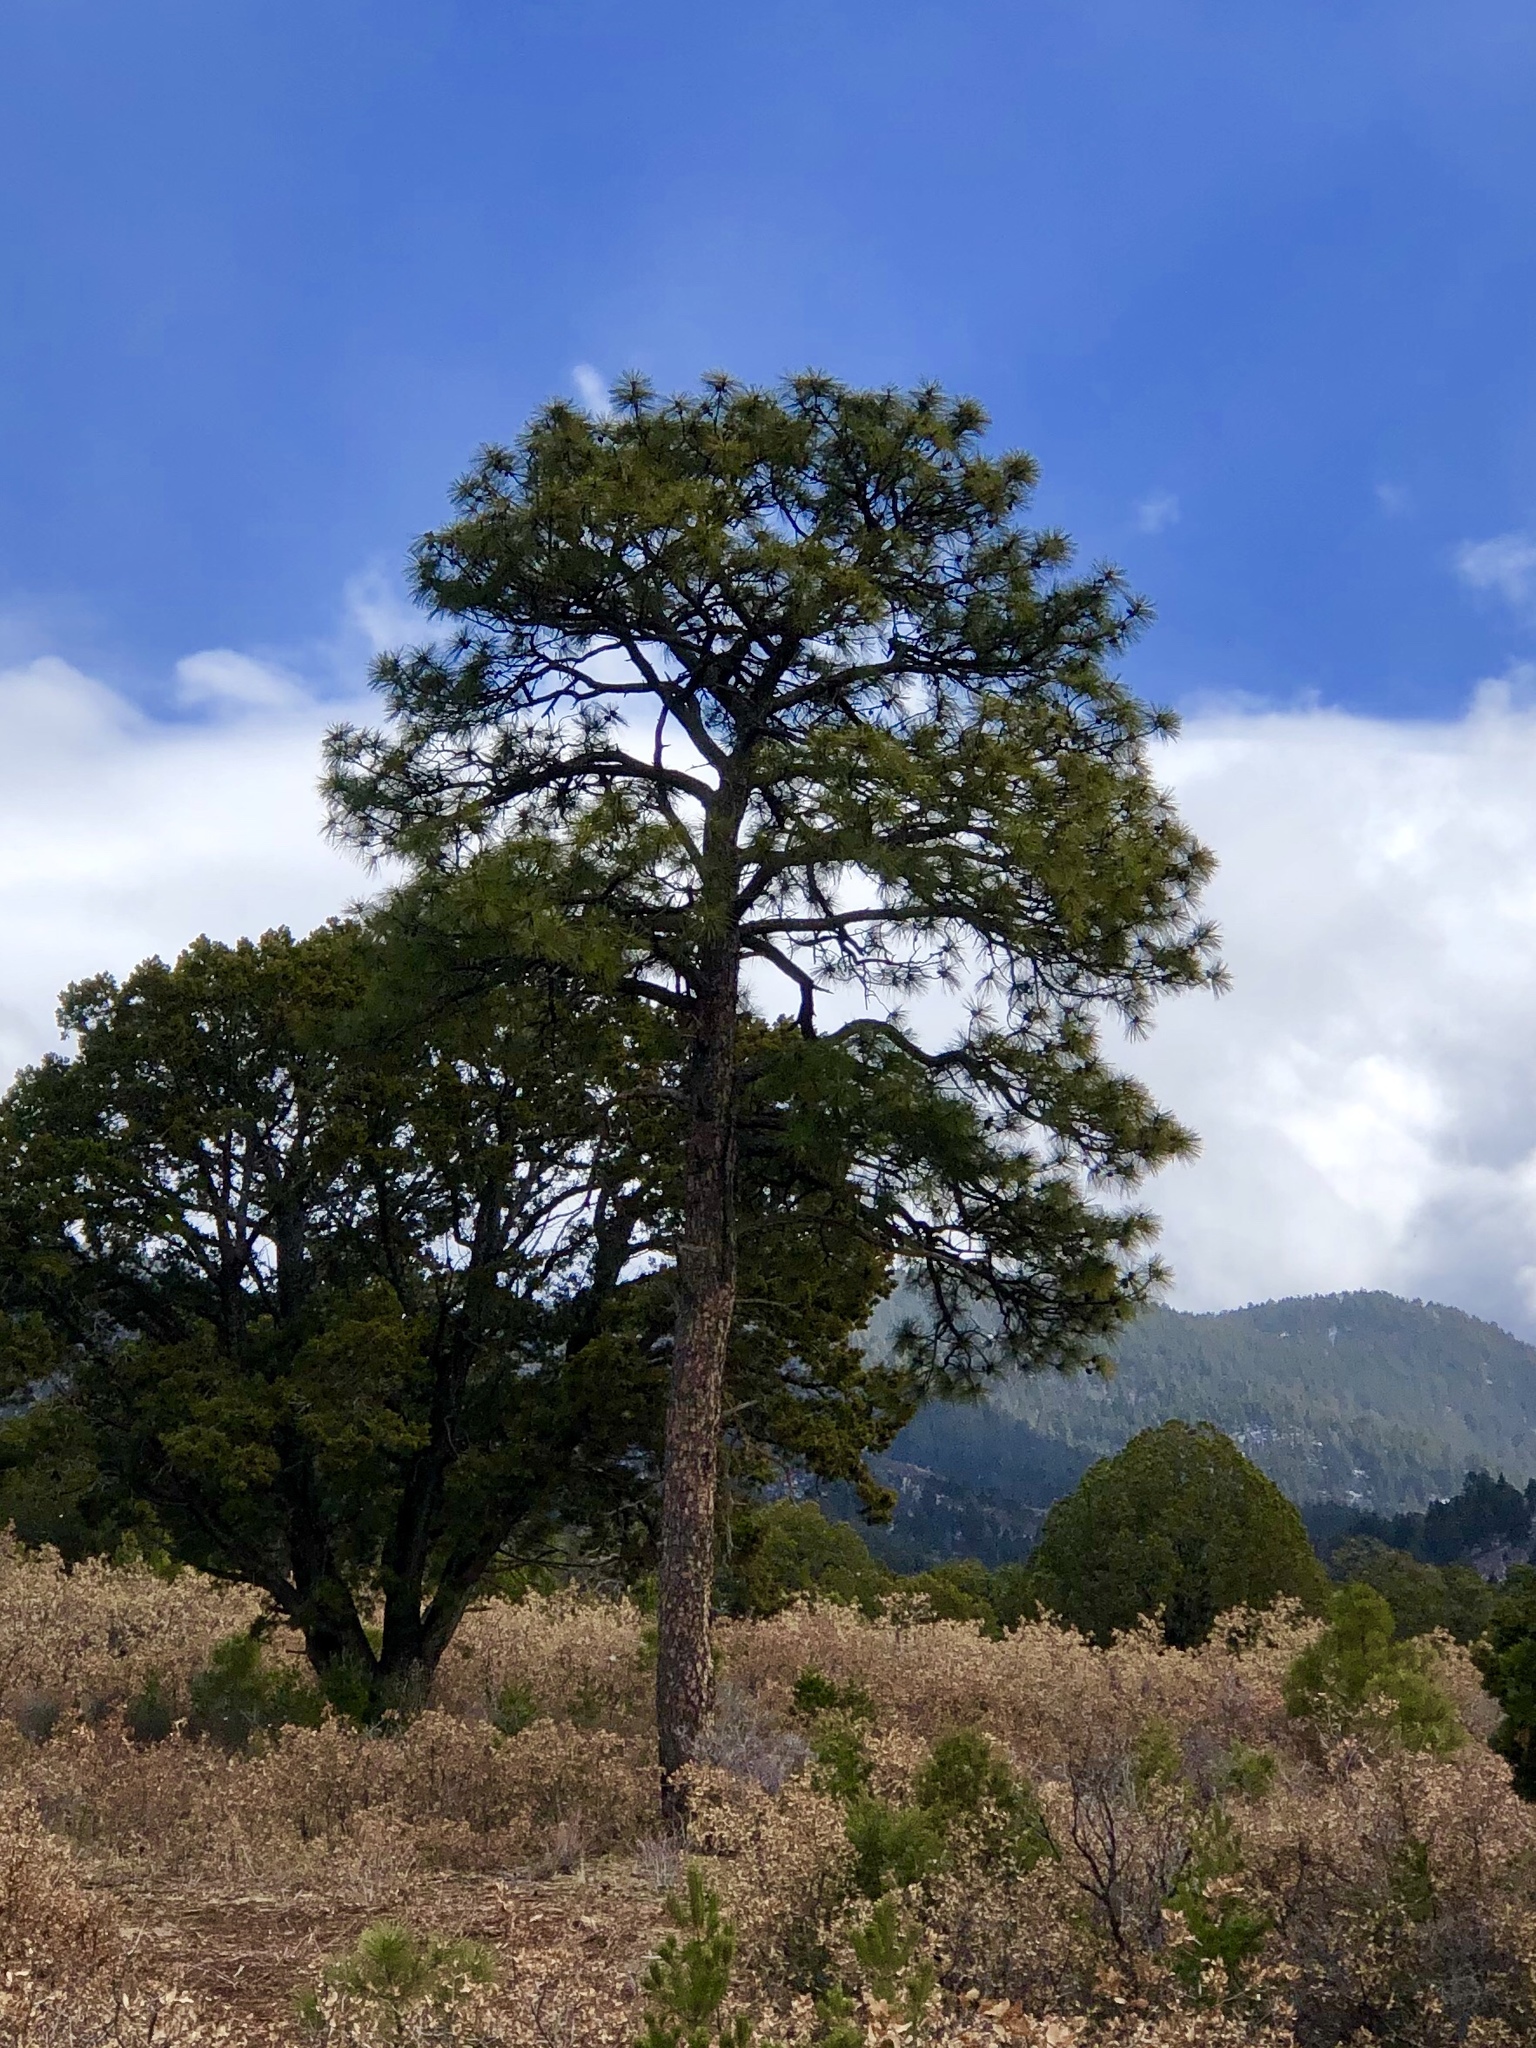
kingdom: Plantae
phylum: Tracheophyta
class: Pinopsida
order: Pinales
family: Pinaceae
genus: Pinus
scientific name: Pinus ponderosa
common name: Western yellow-pine
